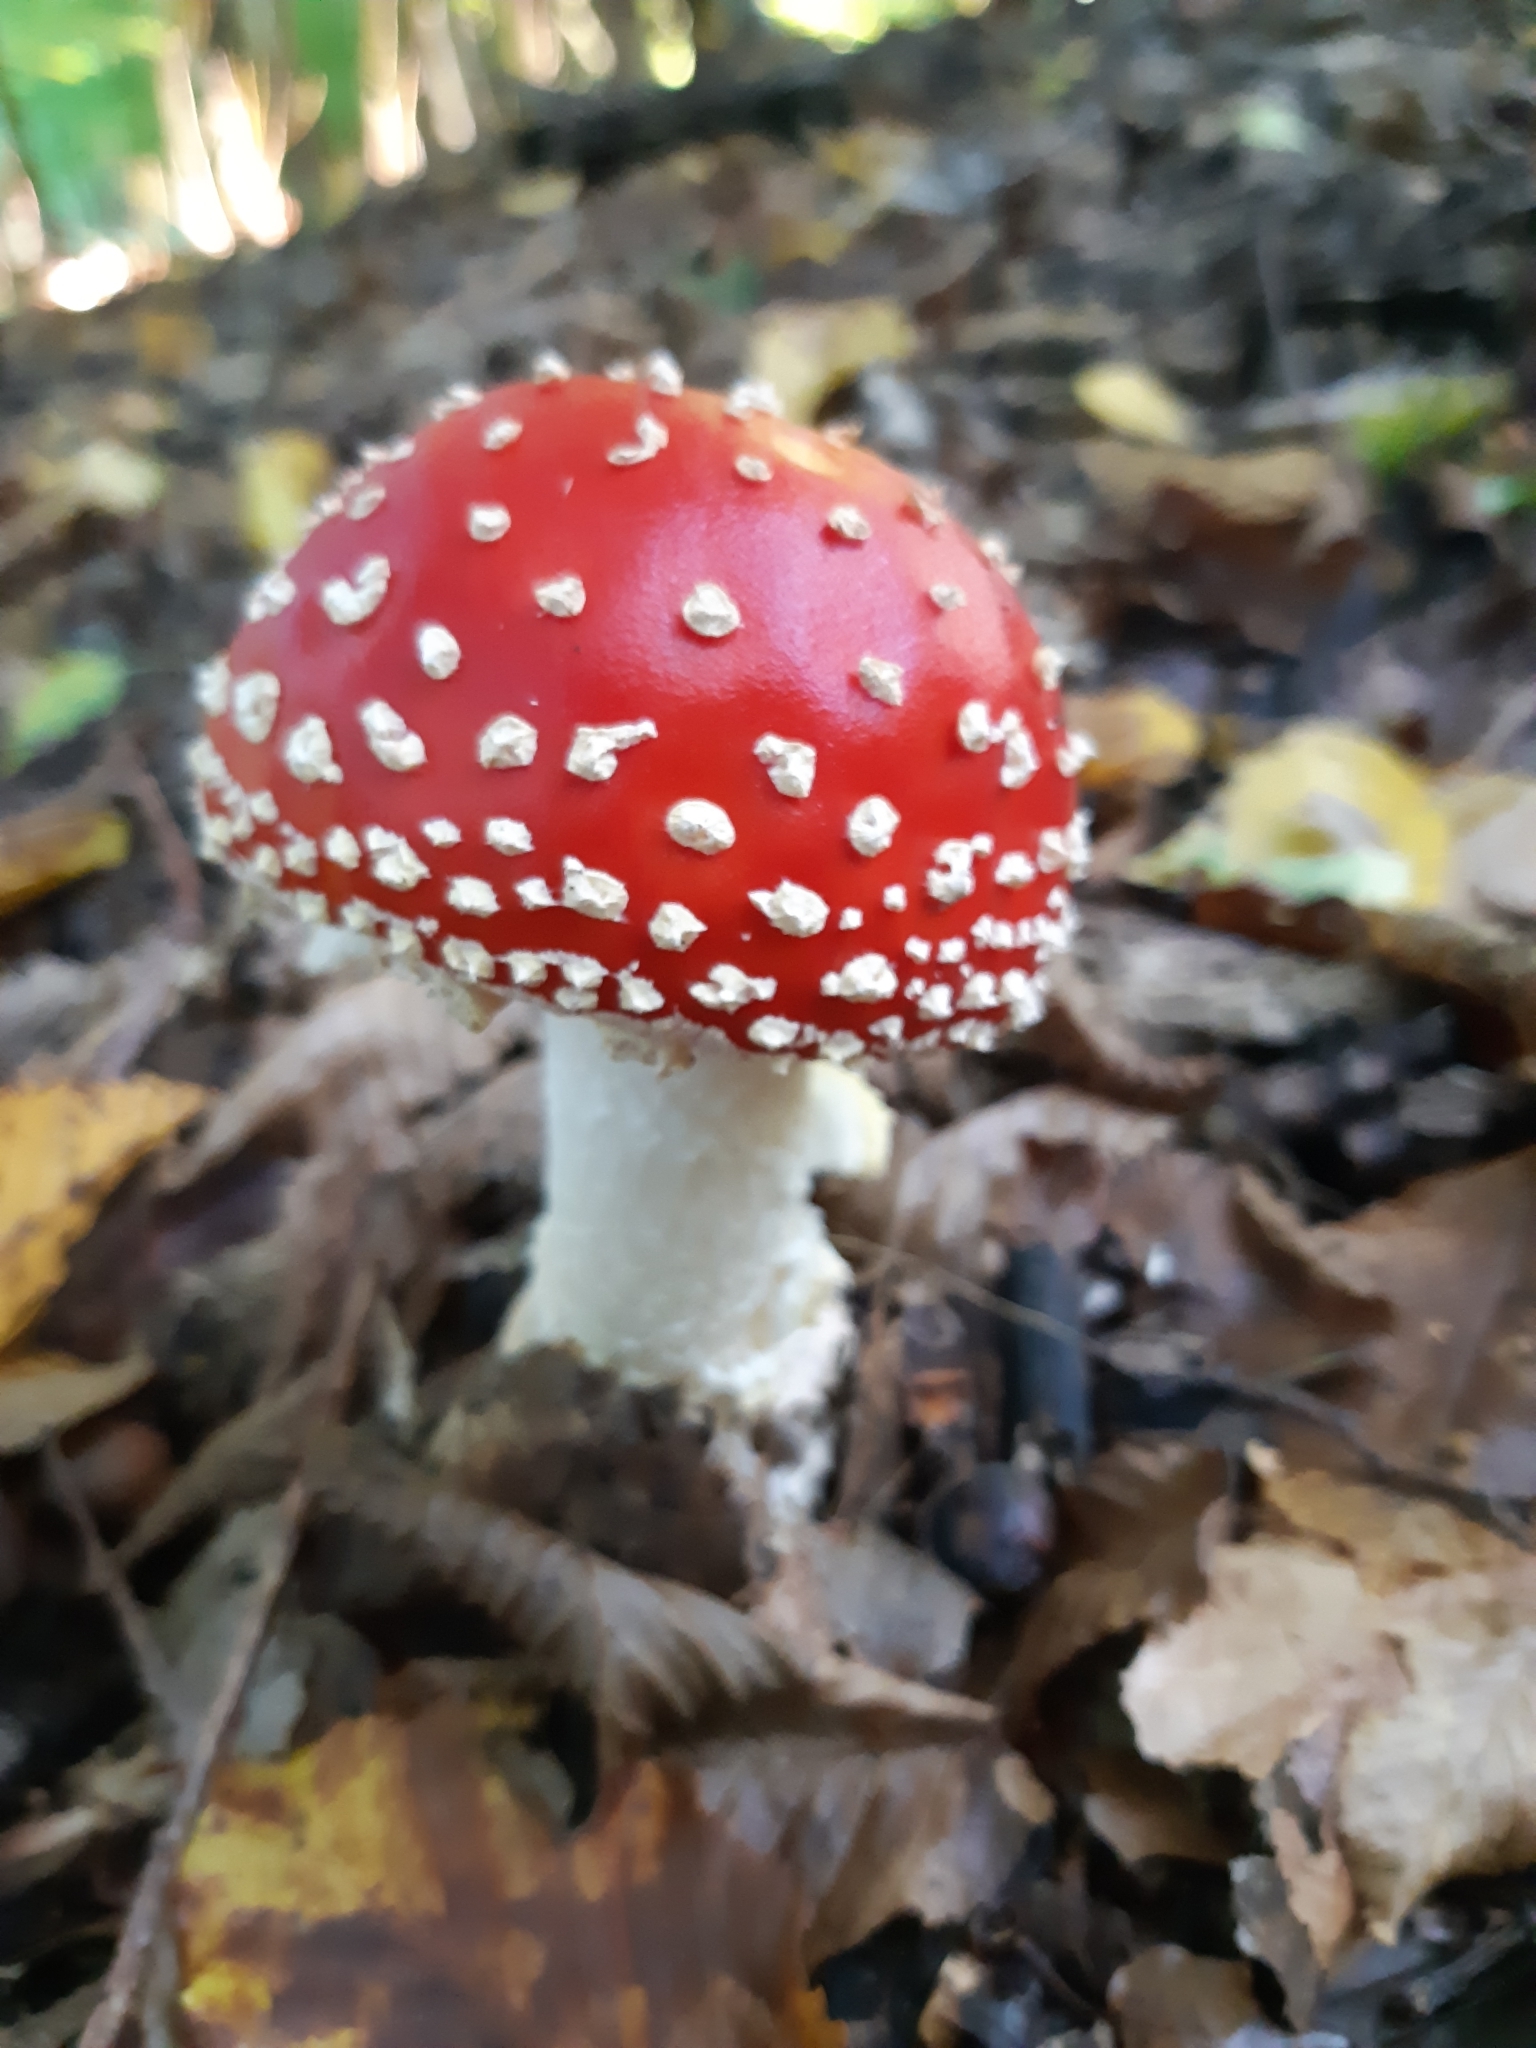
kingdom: Fungi
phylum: Basidiomycota
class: Agaricomycetes
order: Agaricales
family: Amanitaceae
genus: Amanita
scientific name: Amanita muscaria
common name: Fly agaric
